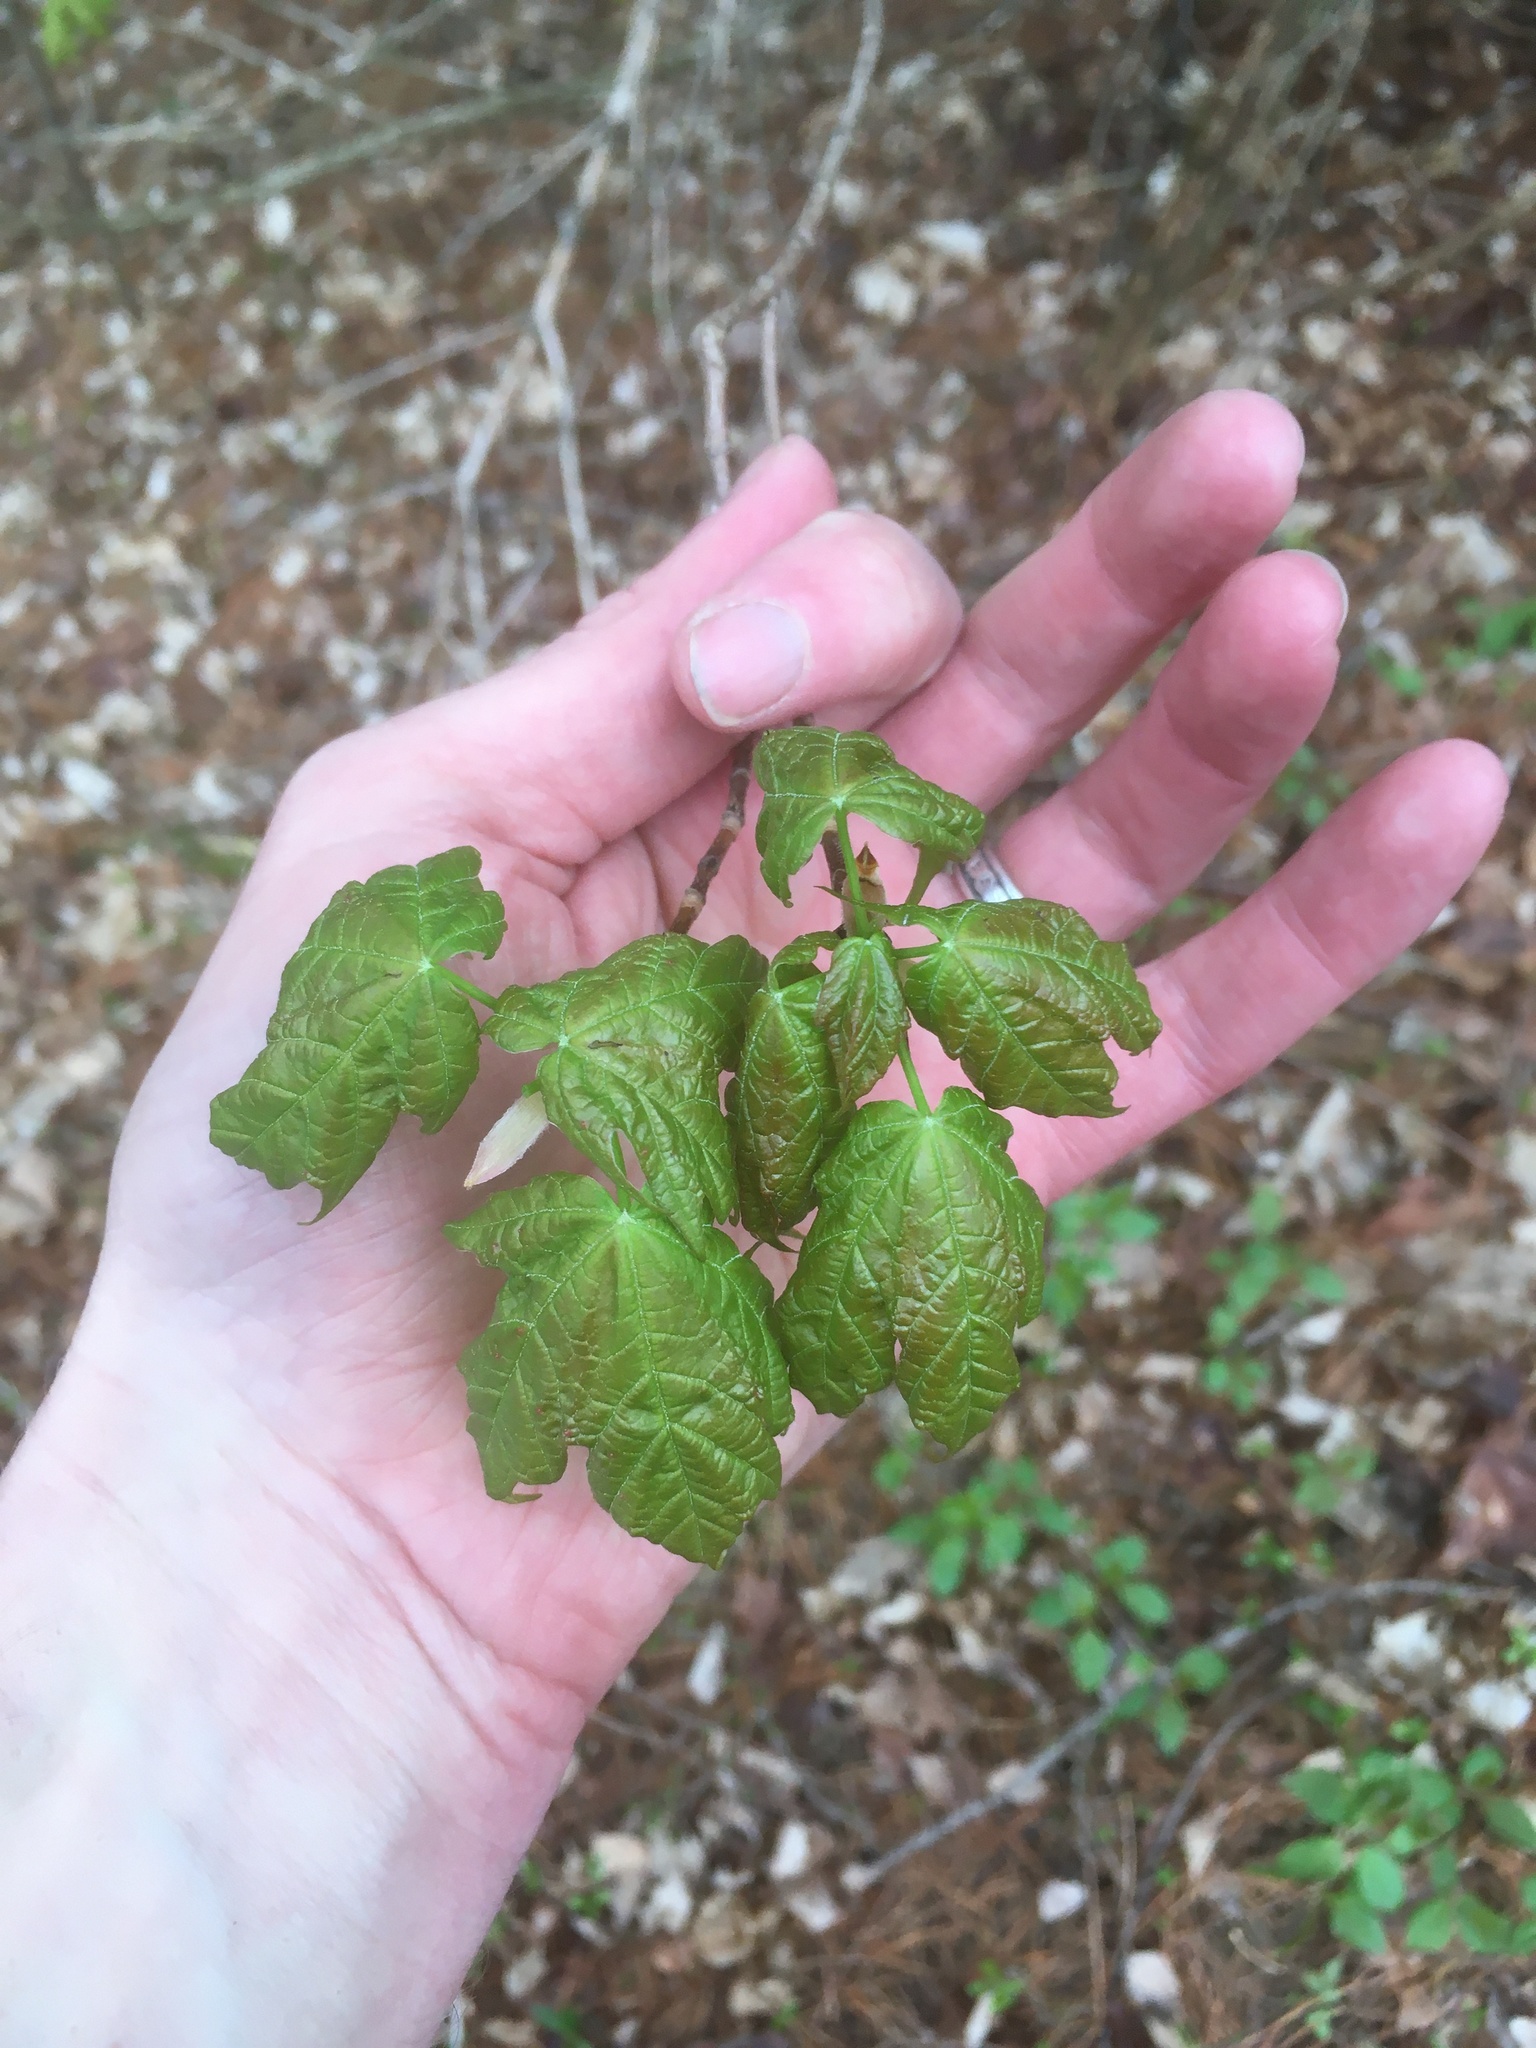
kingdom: Plantae
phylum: Tracheophyta
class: Magnoliopsida
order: Sapindales
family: Sapindaceae
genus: Acer
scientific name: Acer saccharum
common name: Sugar maple
